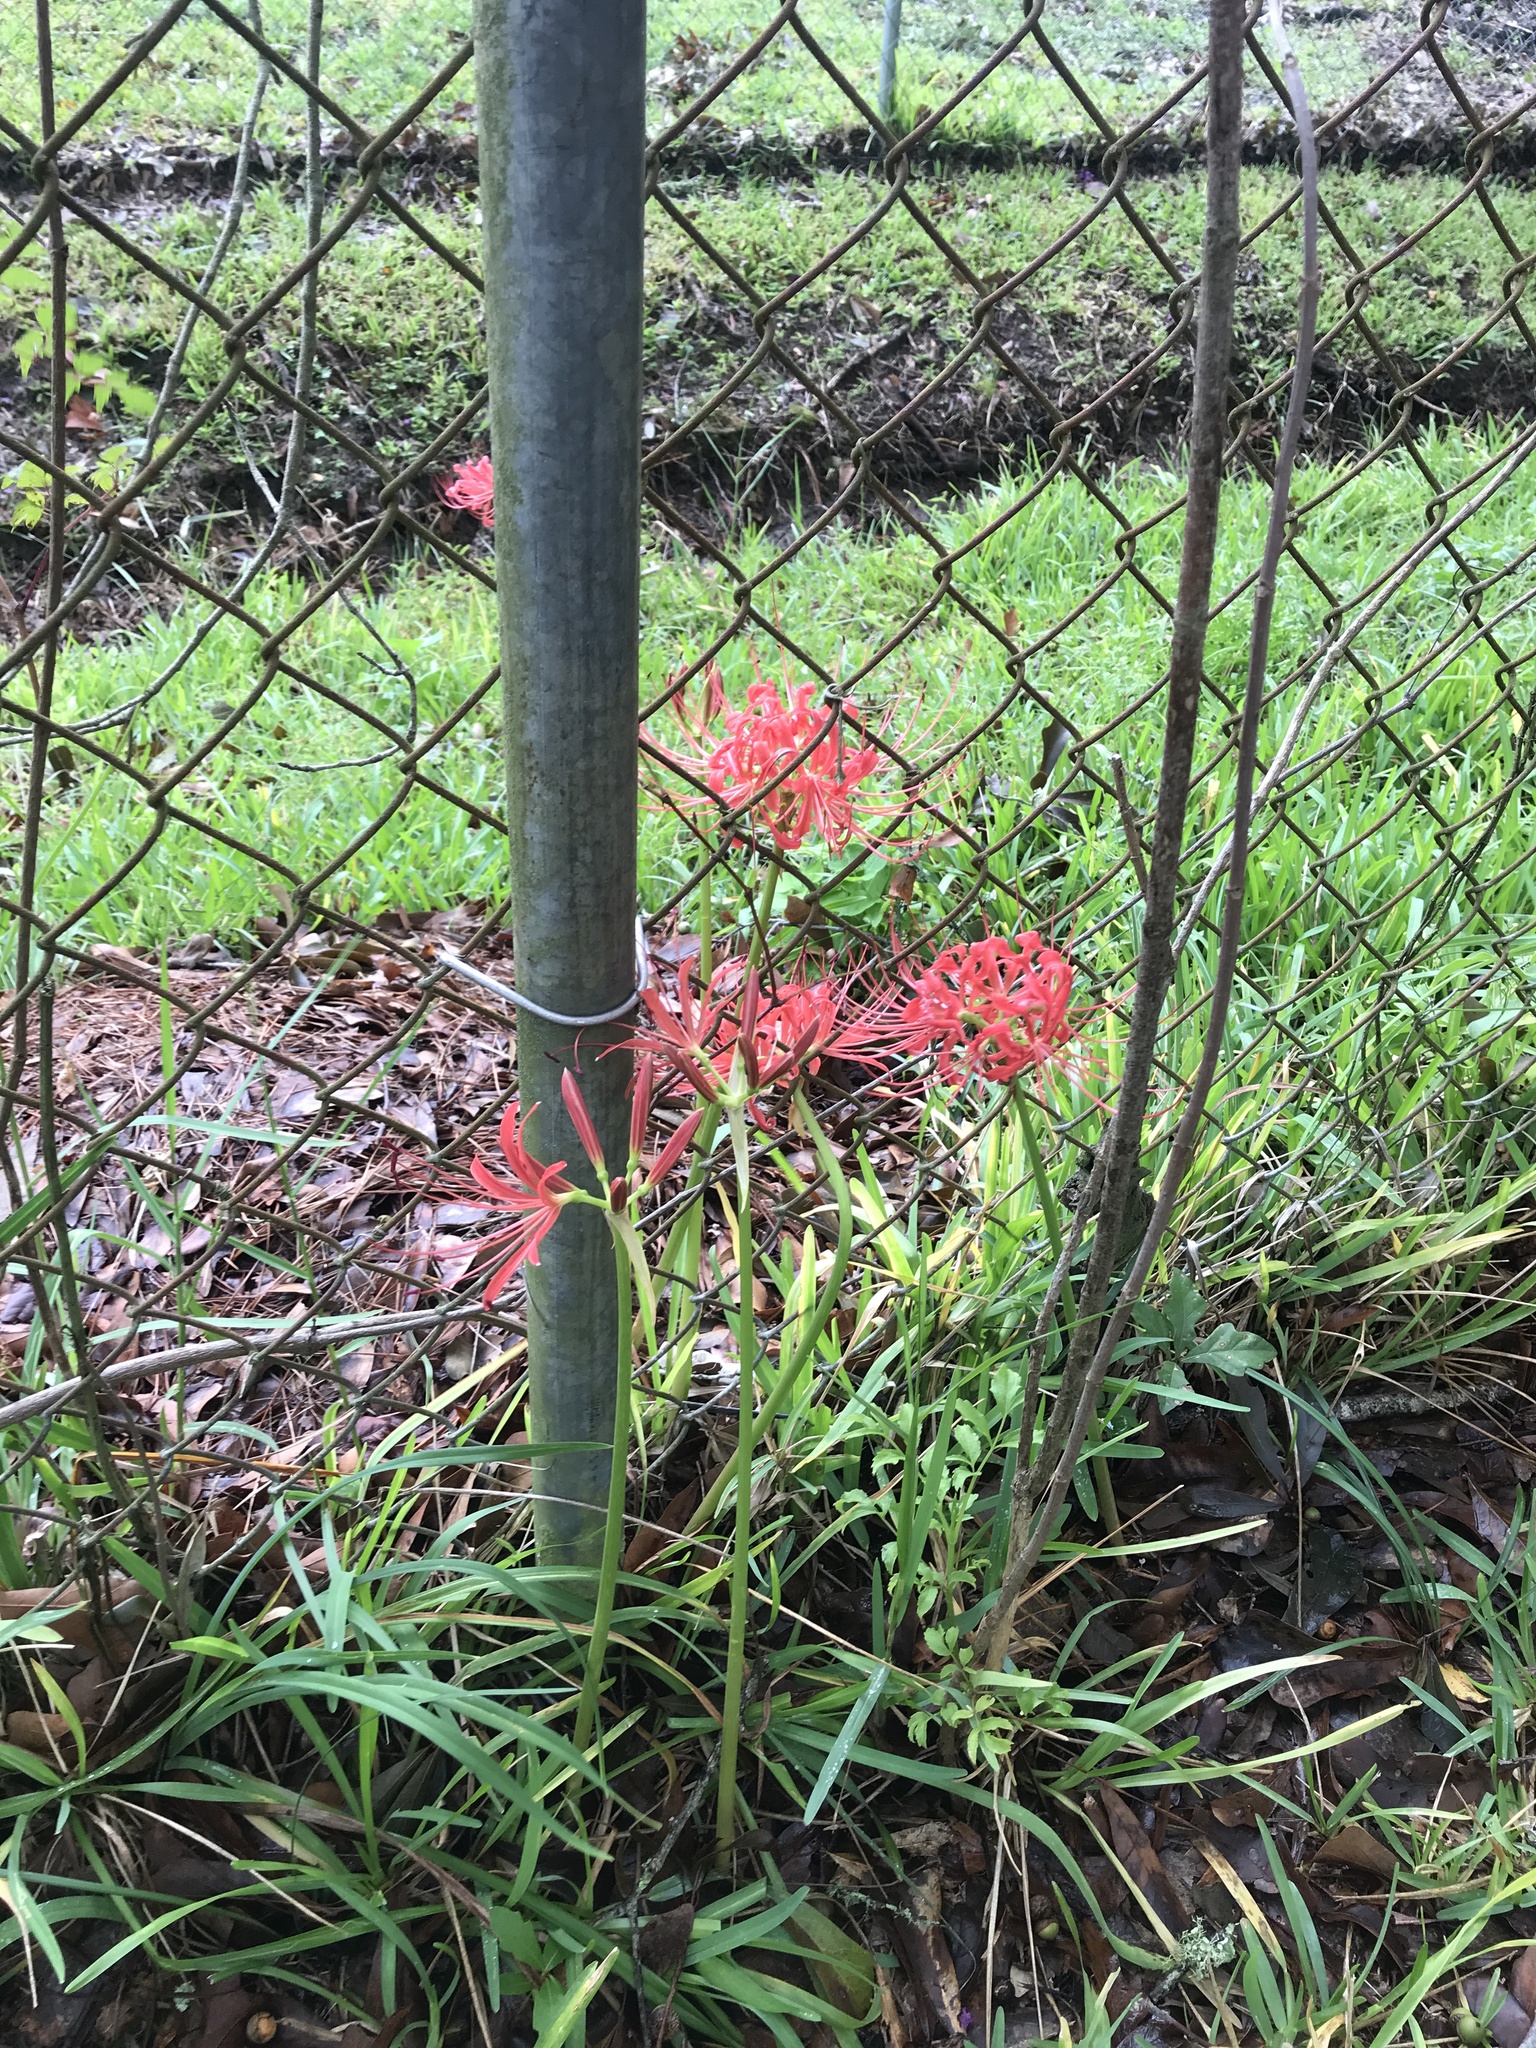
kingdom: Plantae
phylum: Tracheophyta
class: Liliopsida
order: Asparagales
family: Amaryllidaceae
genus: Lycoris
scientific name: Lycoris radiata
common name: Red spider lily
